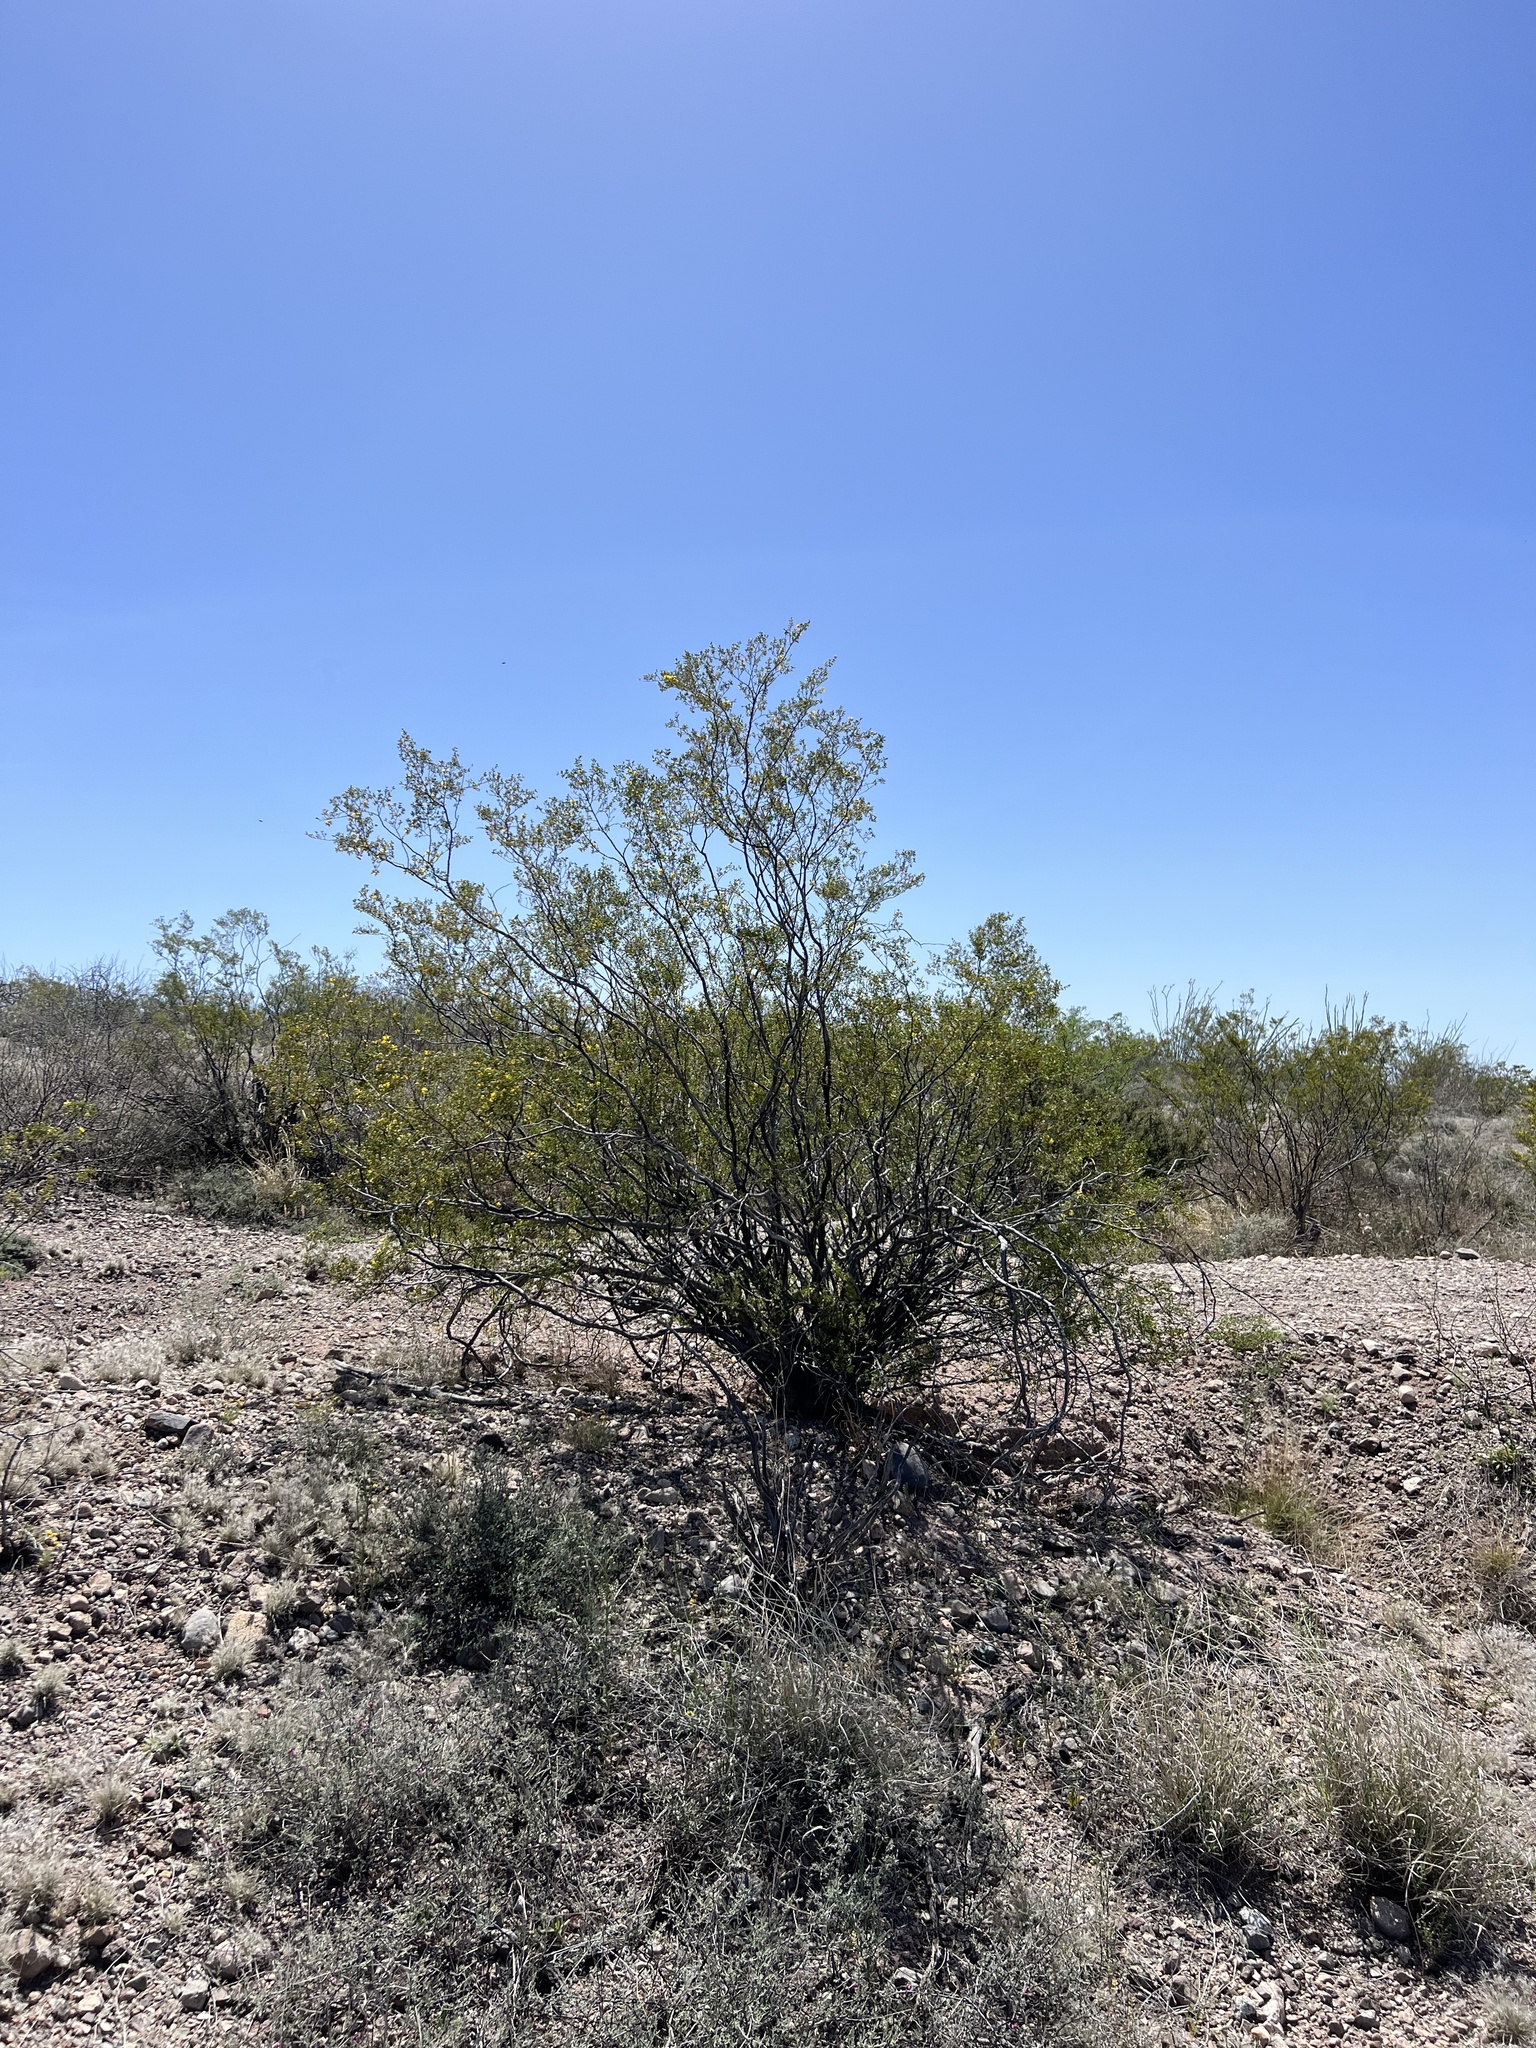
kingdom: Plantae
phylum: Tracheophyta
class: Magnoliopsida
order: Zygophyllales
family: Zygophyllaceae
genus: Larrea
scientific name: Larrea tridentata
